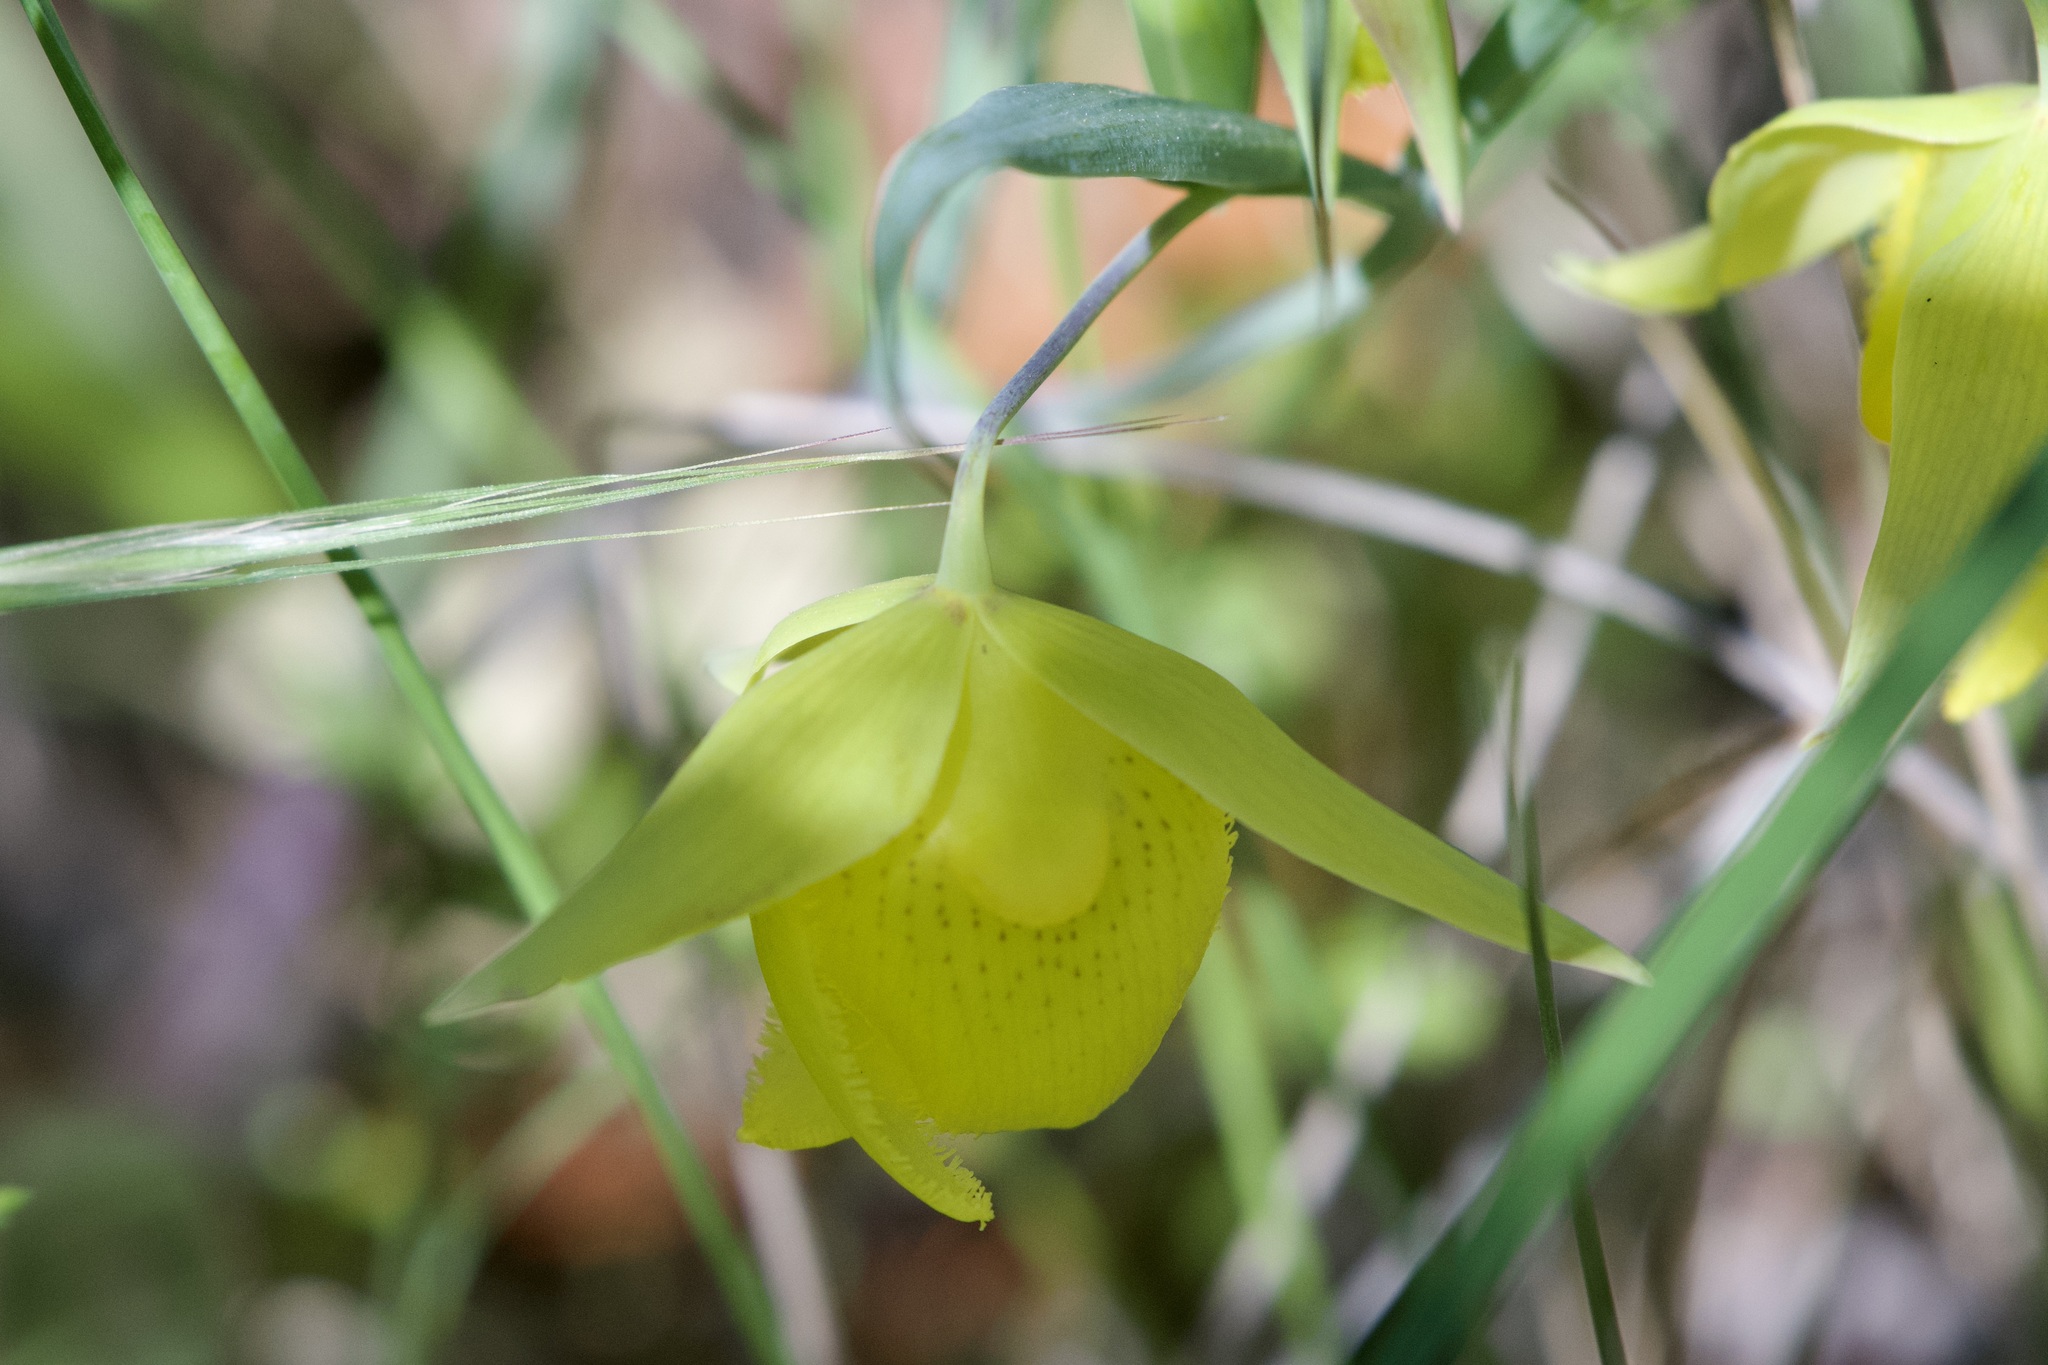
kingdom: Plantae
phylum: Tracheophyta
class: Liliopsida
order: Liliales
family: Liliaceae
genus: Calochortus
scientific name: Calochortus pulchellus
